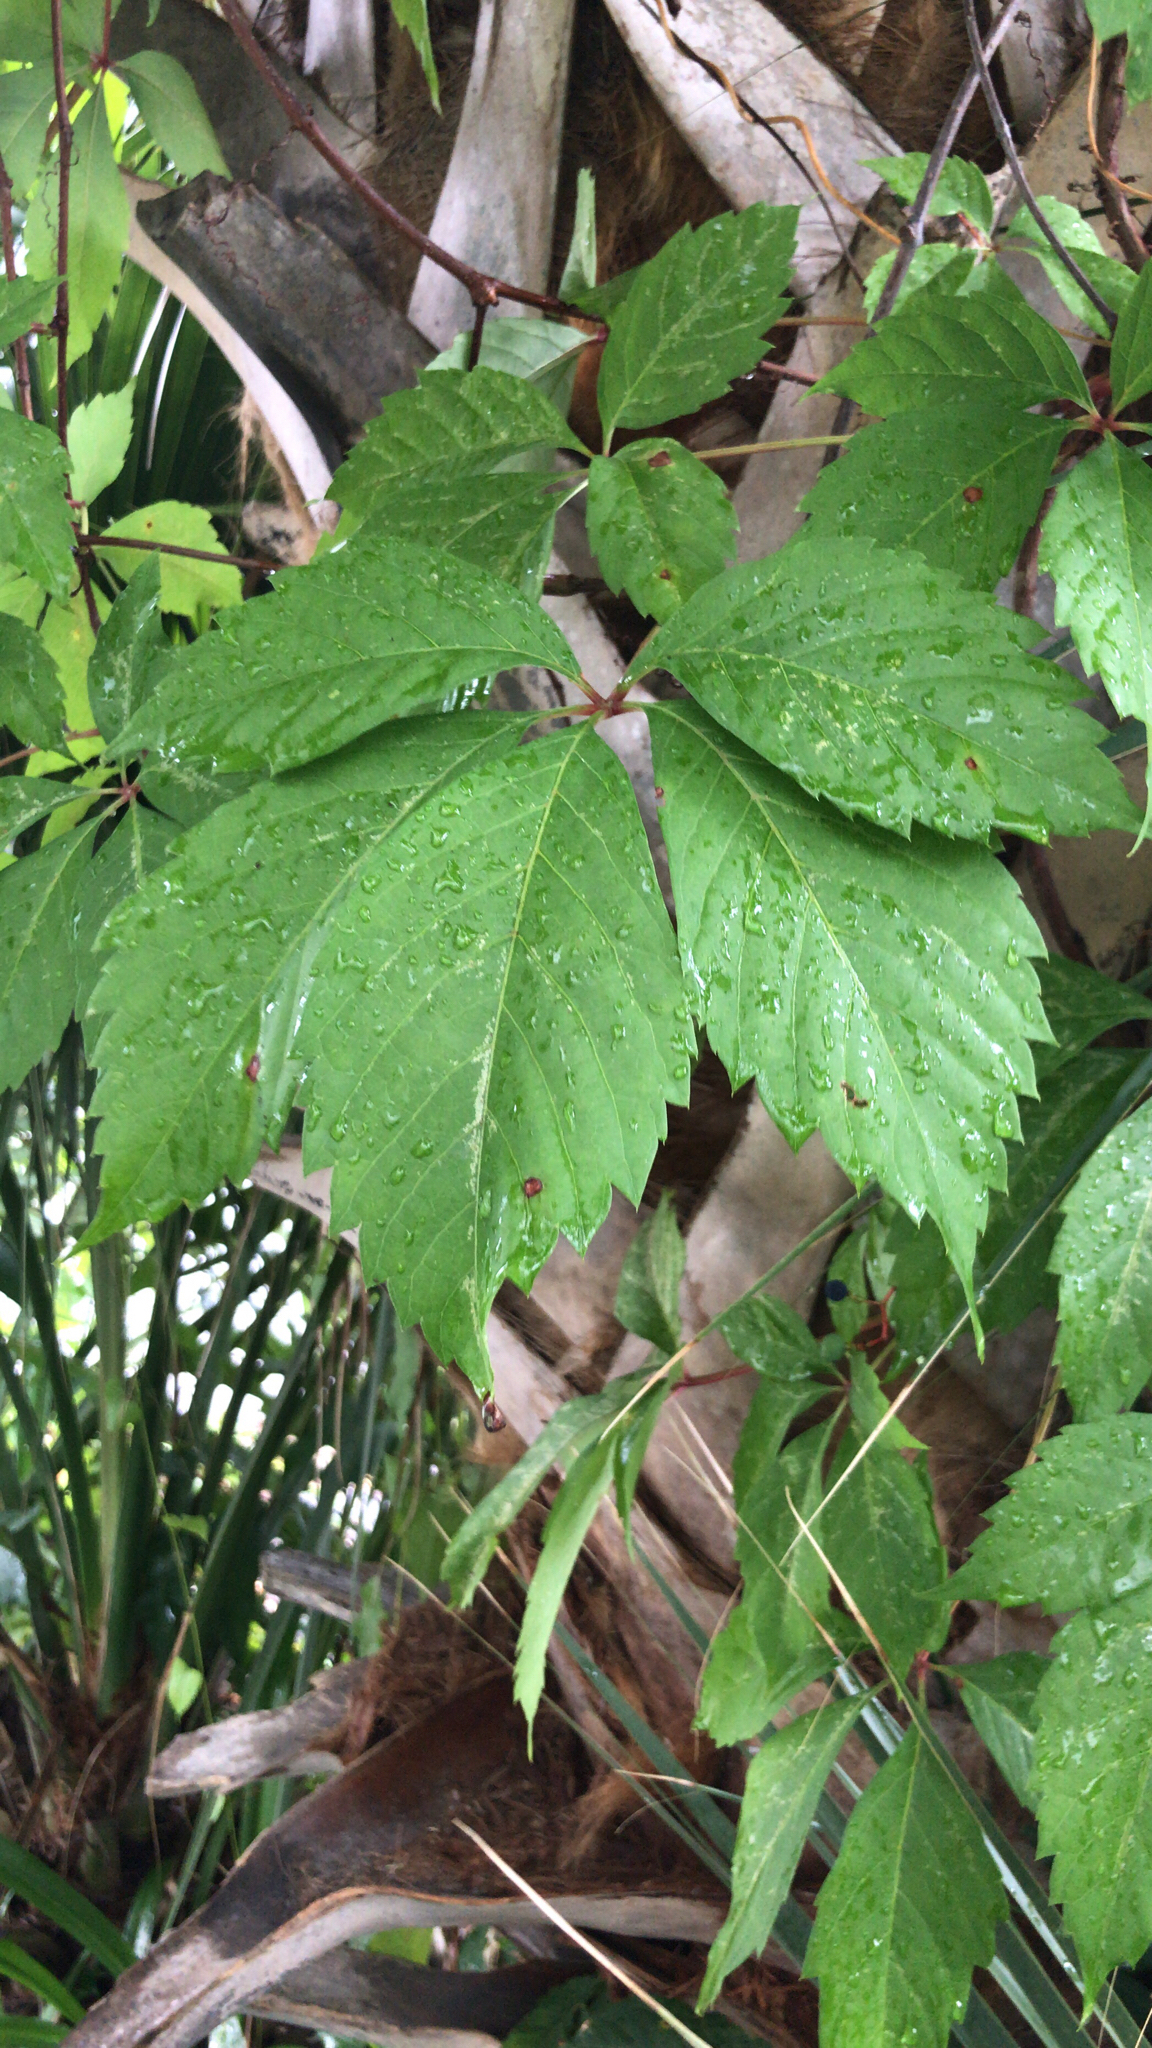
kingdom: Plantae
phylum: Tracheophyta
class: Magnoliopsida
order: Vitales
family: Vitaceae
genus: Parthenocissus
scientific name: Parthenocissus quinquefolia
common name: Virginia-creeper
